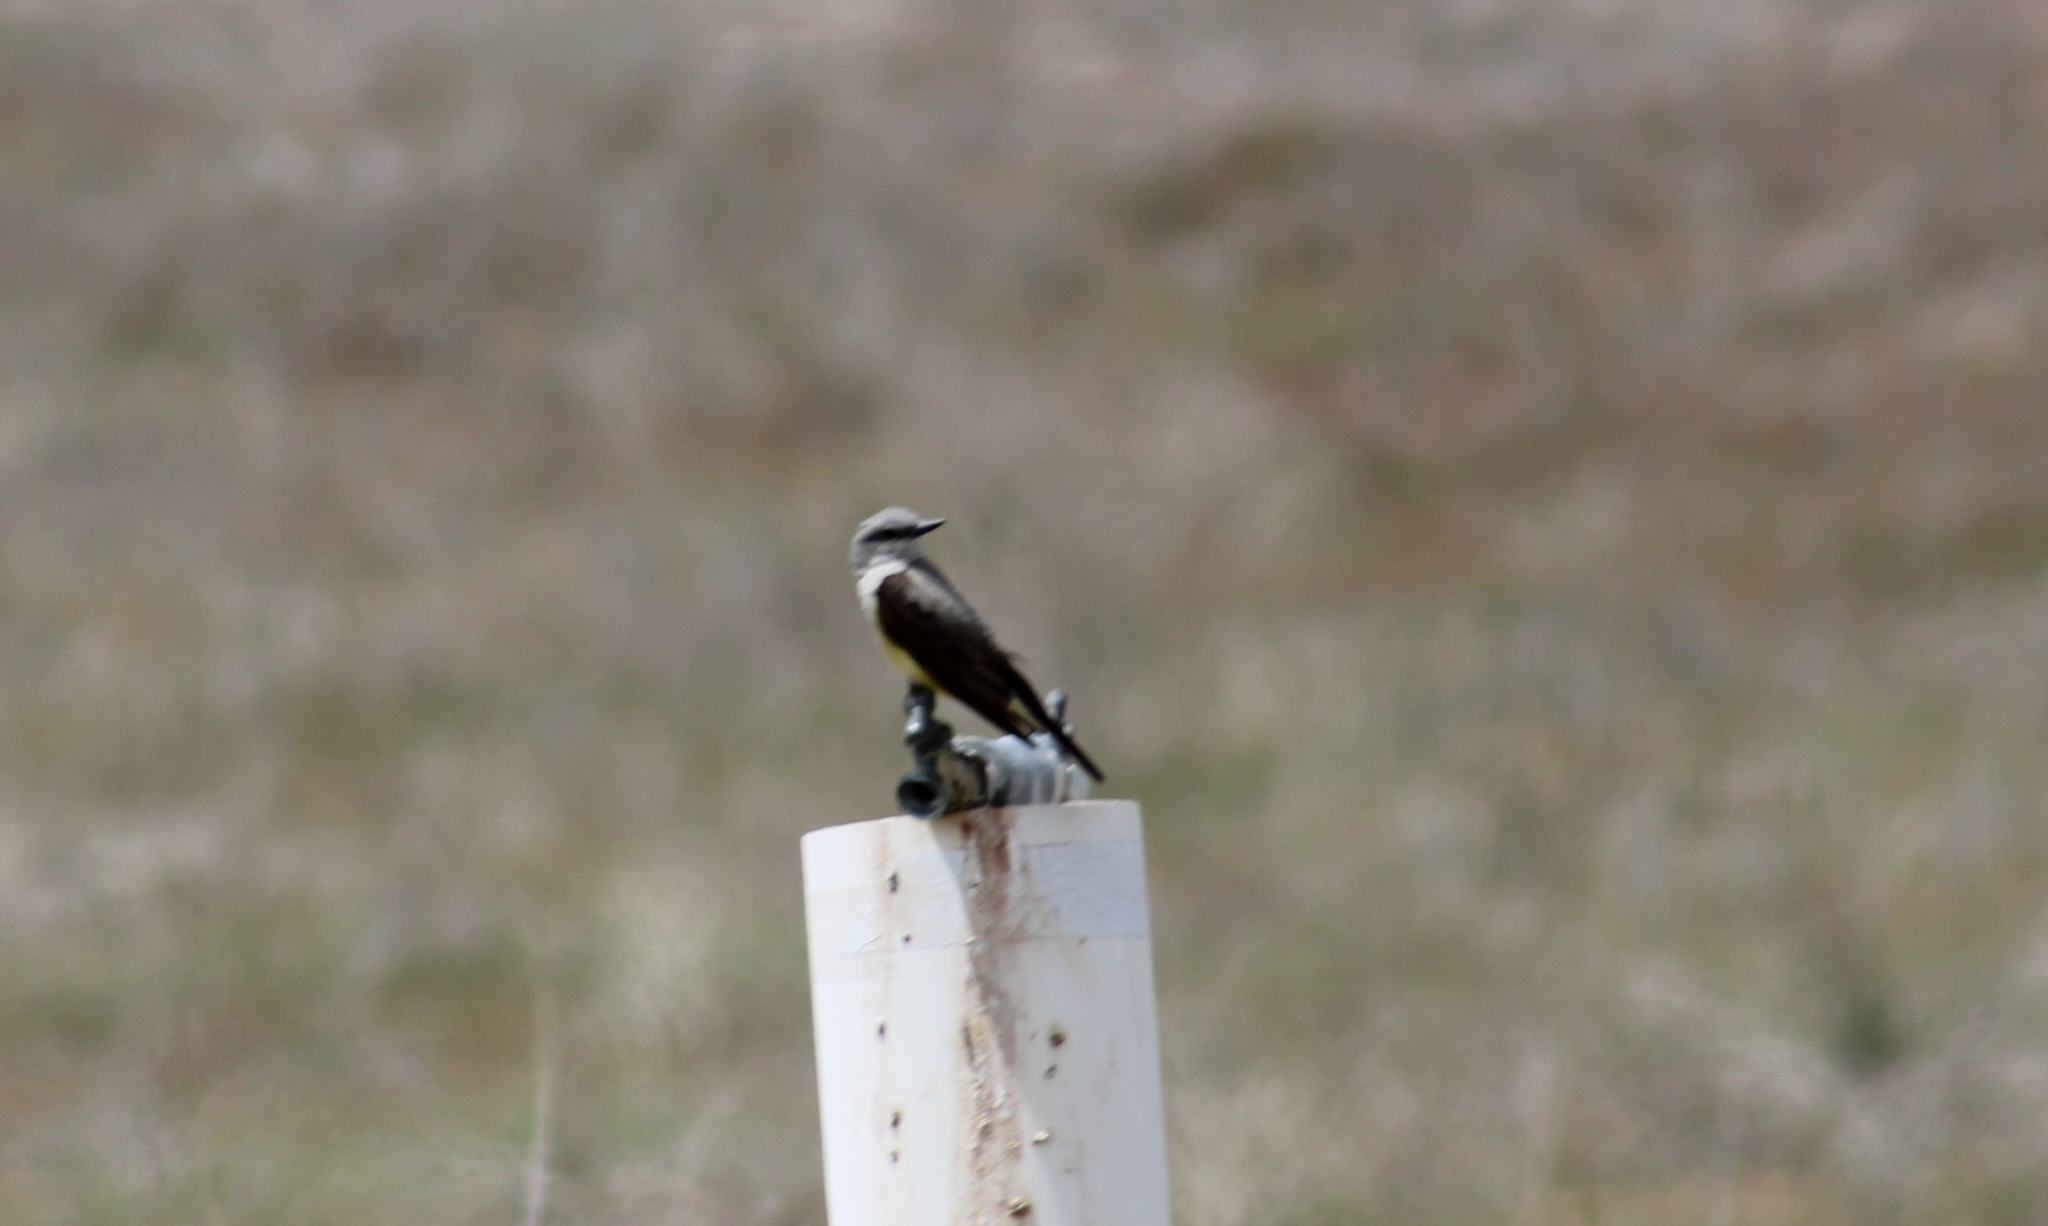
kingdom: Animalia
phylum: Chordata
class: Aves
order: Passeriformes
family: Tyrannidae
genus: Tyrannus
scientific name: Tyrannus verticalis
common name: Western kingbird
